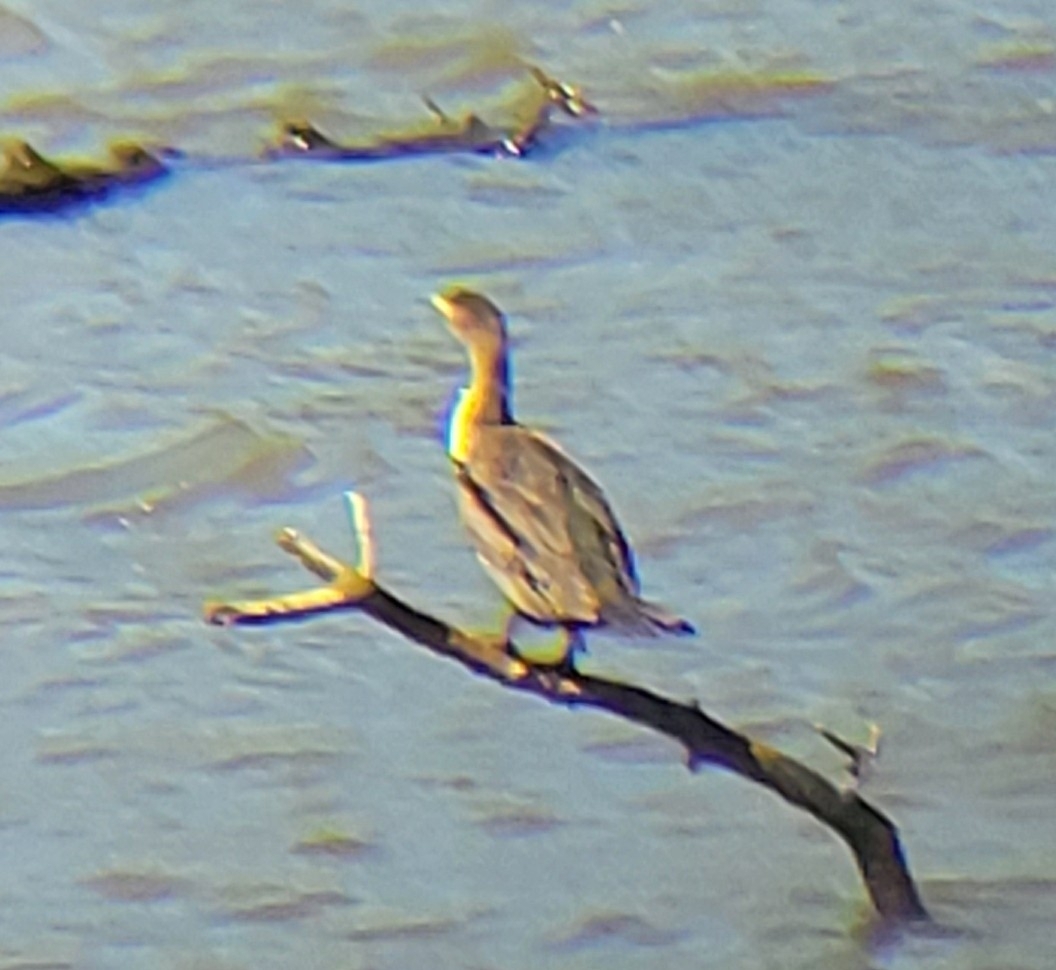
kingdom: Animalia
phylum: Chordata
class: Aves
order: Suliformes
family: Phalacrocoracidae
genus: Phalacrocorax
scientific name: Phalacrocorax auritus
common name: Double-crested cormorant
